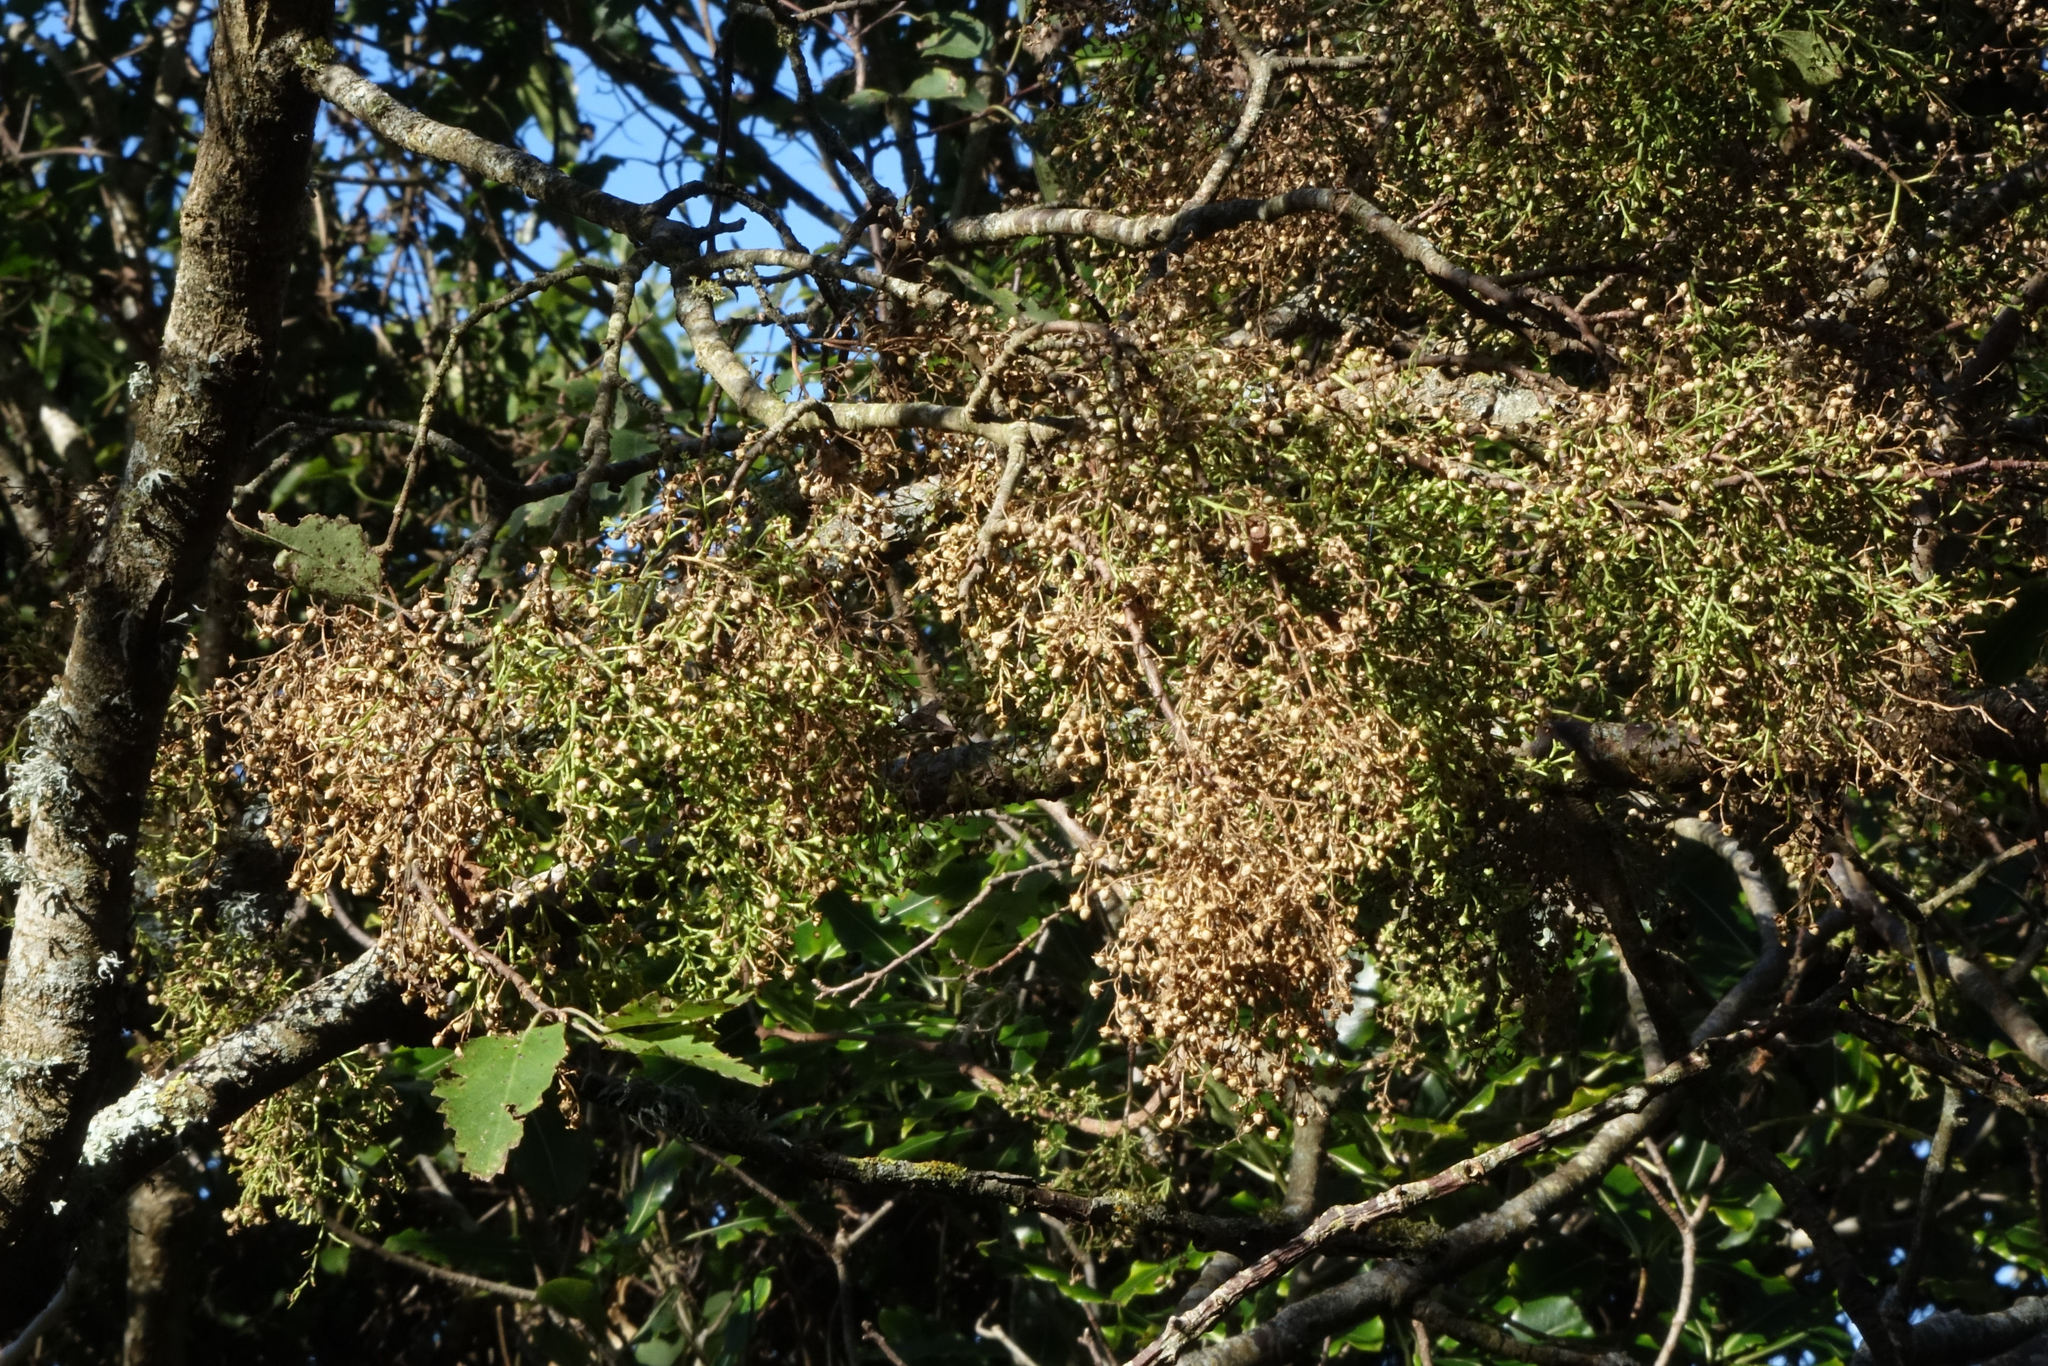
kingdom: Plantae
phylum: Tracheophyta
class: Magnoliopsida
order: Malvales
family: Malvaceae
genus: Plagianthus
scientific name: Plagianthus regius
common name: Manatu
